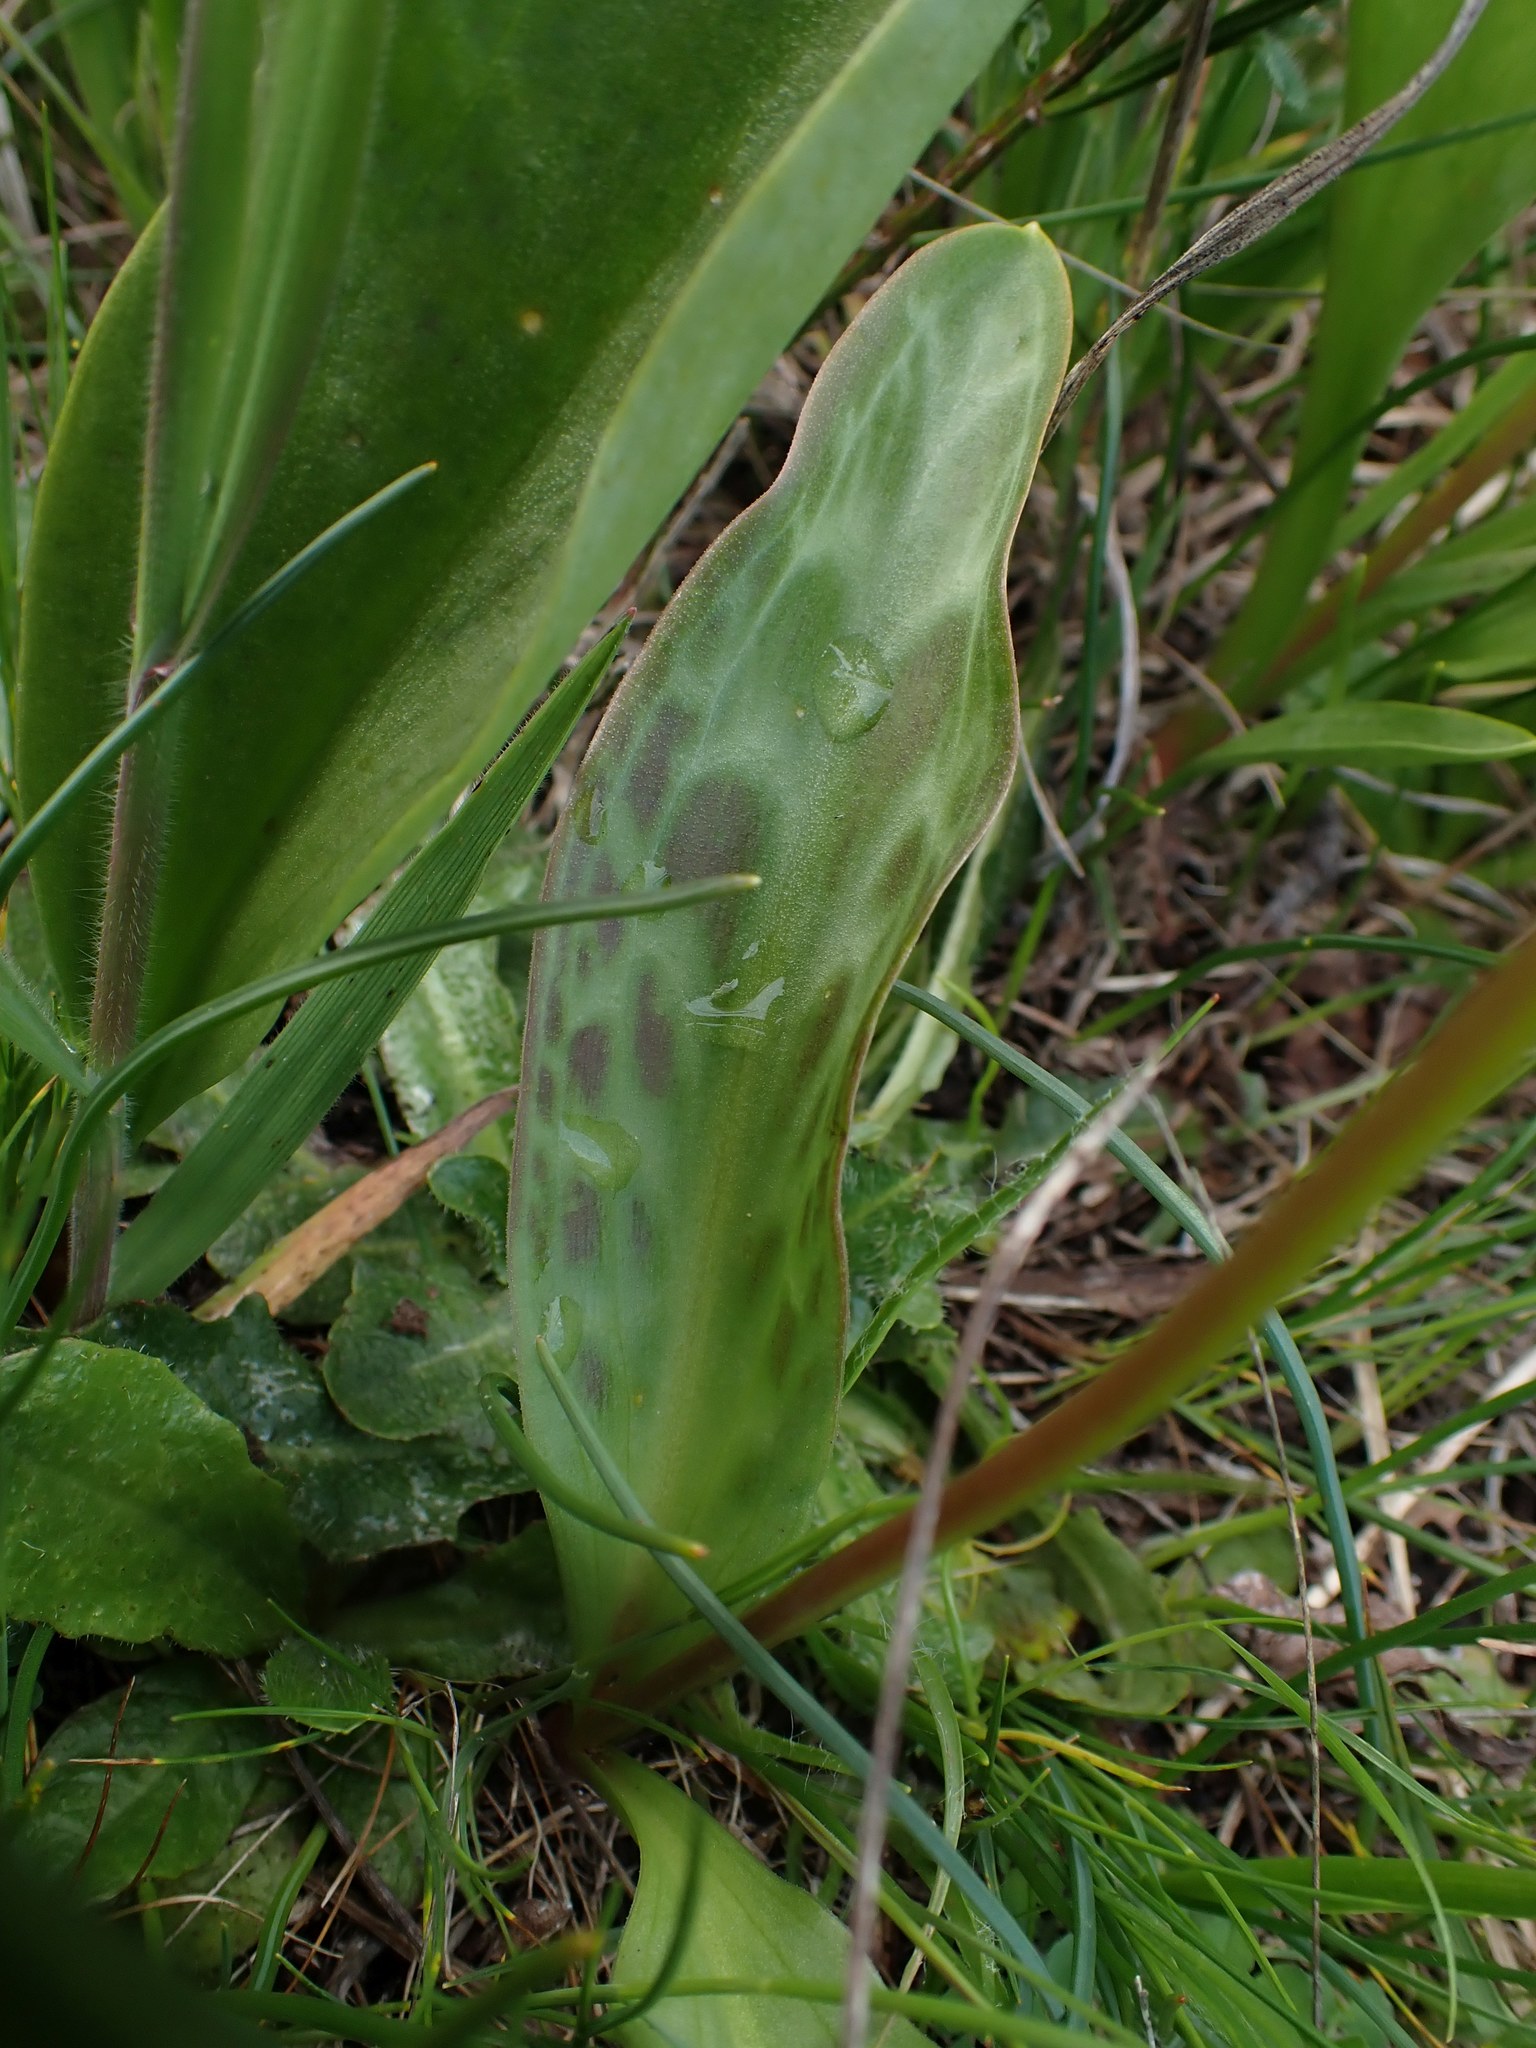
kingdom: Plantae
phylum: Tracheophyta
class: Liliopsida
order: Liliales
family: Liliaceae
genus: Erythronium
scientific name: Erythronium oregonum
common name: Giant adder's-tongue
